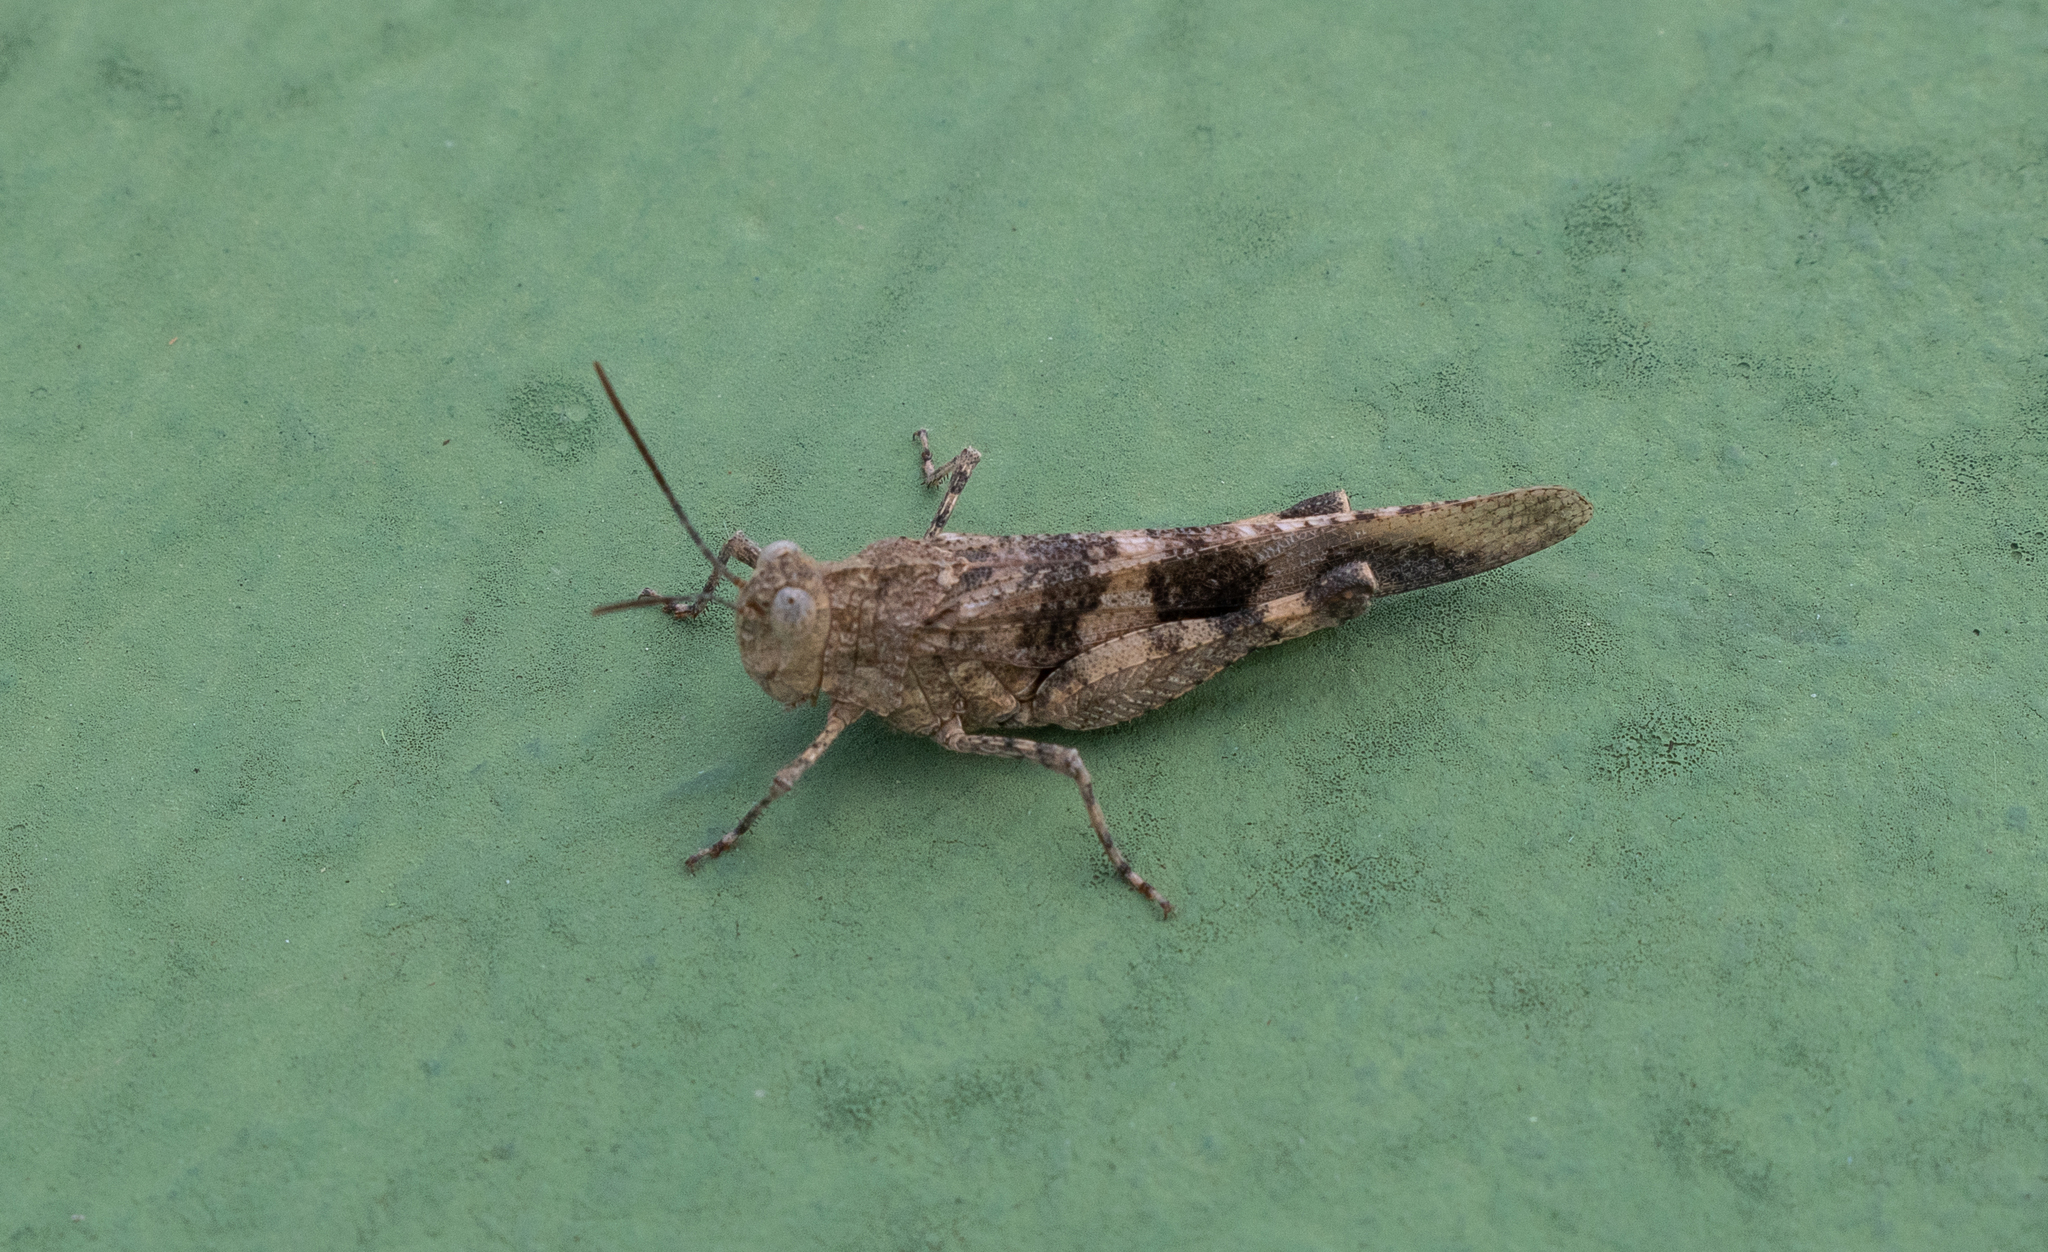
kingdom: Animalia
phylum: Arthropoda
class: Insecta
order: Orthoptera
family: Acrididae
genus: Lactista
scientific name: Lactista stramineus
